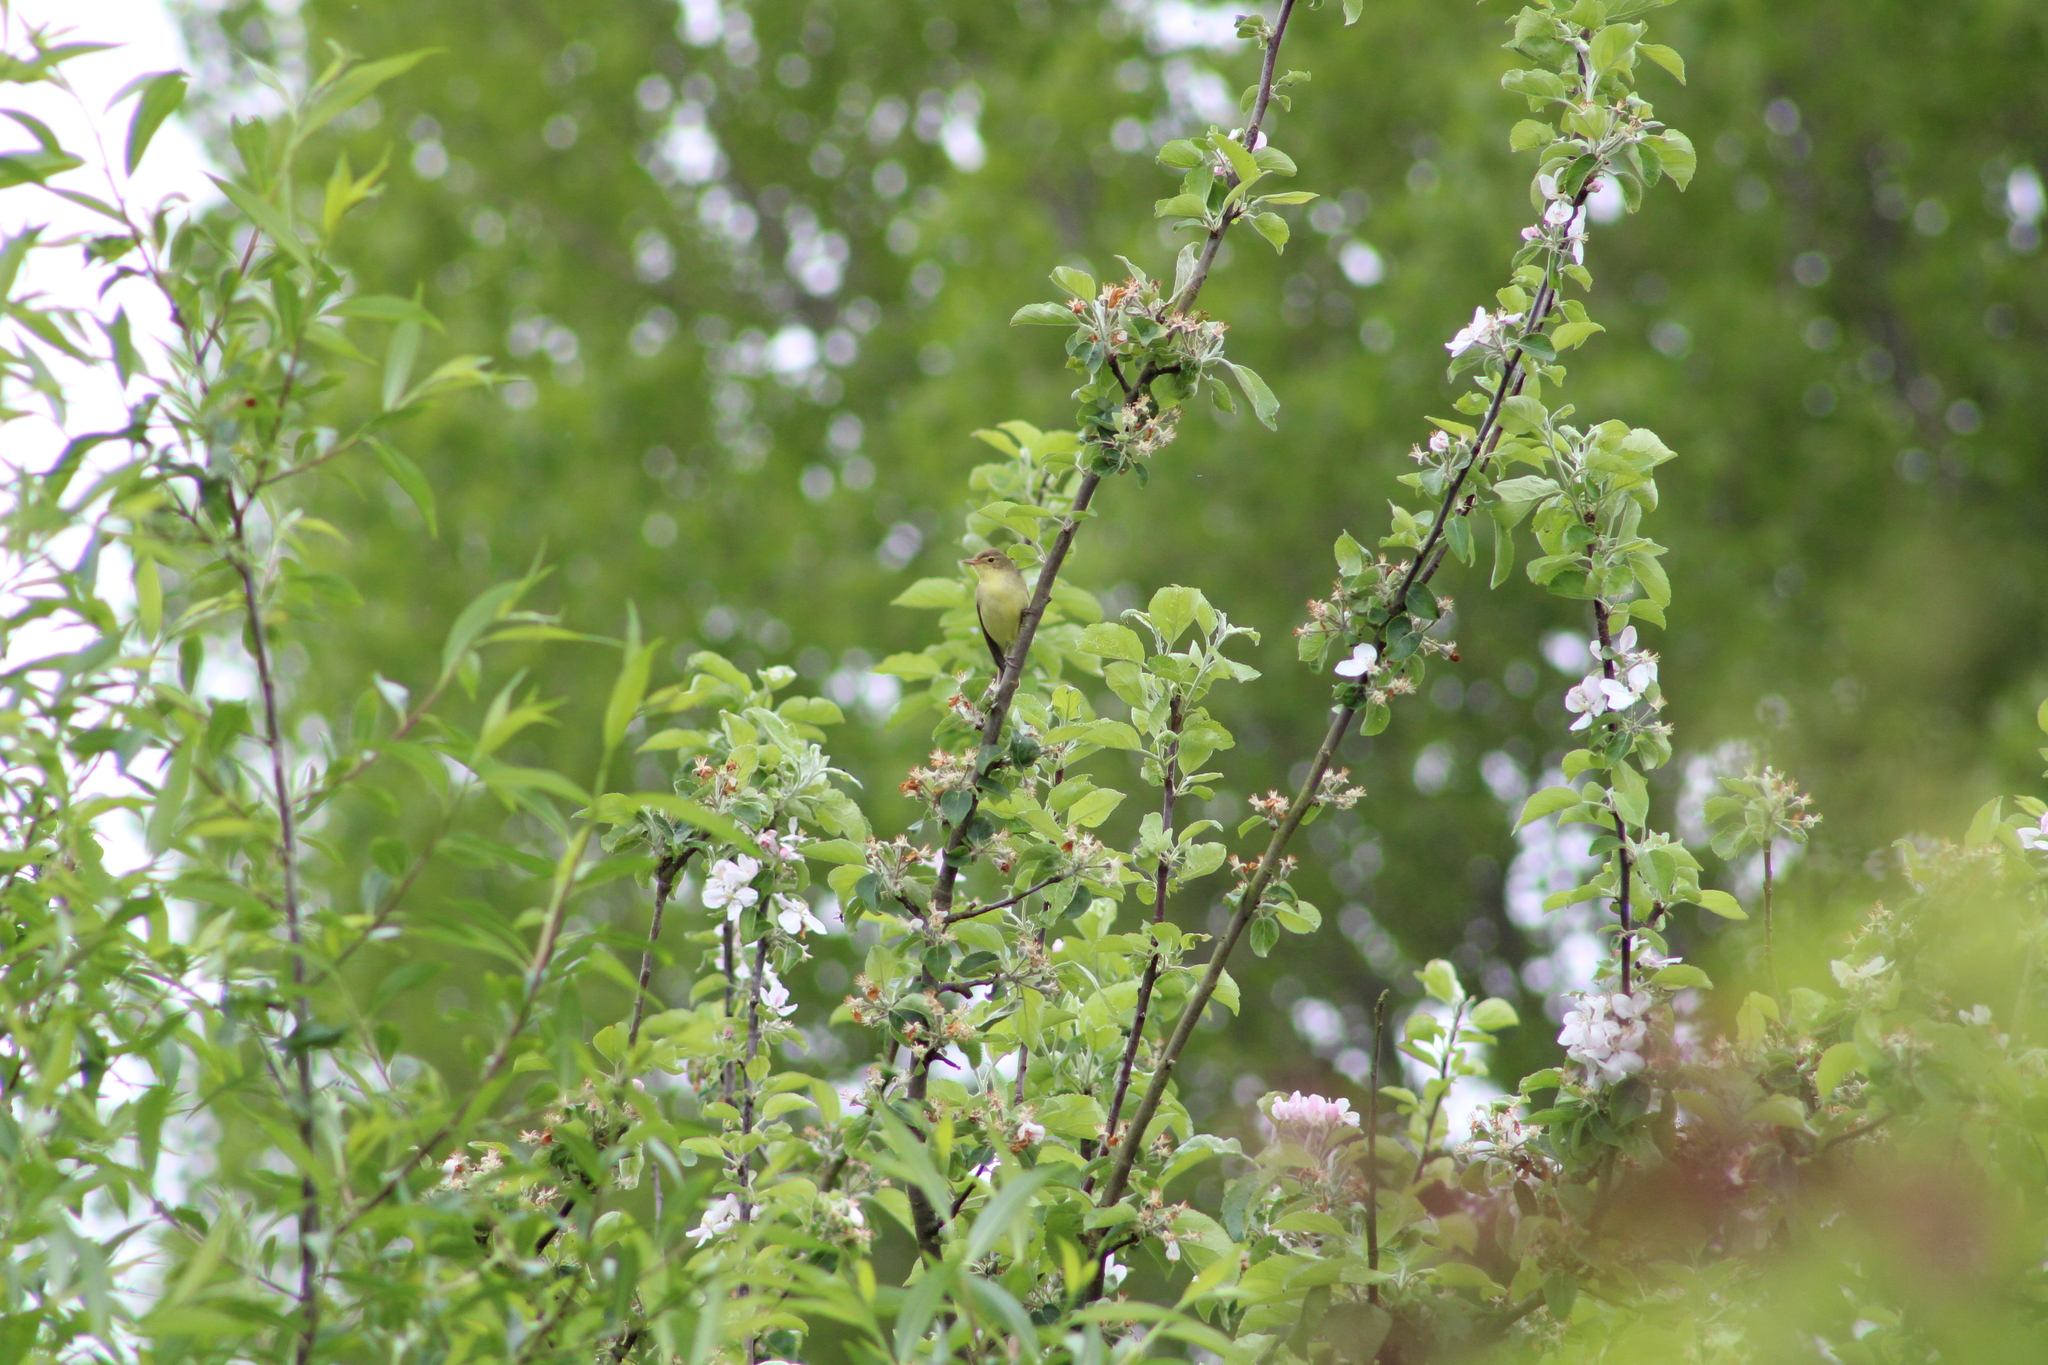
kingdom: Animalia
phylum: Chordata
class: Aves
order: Passeriformes
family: Acrocephalidae
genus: Hippolais
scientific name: Hippolais icterina
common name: Icterine warbler
